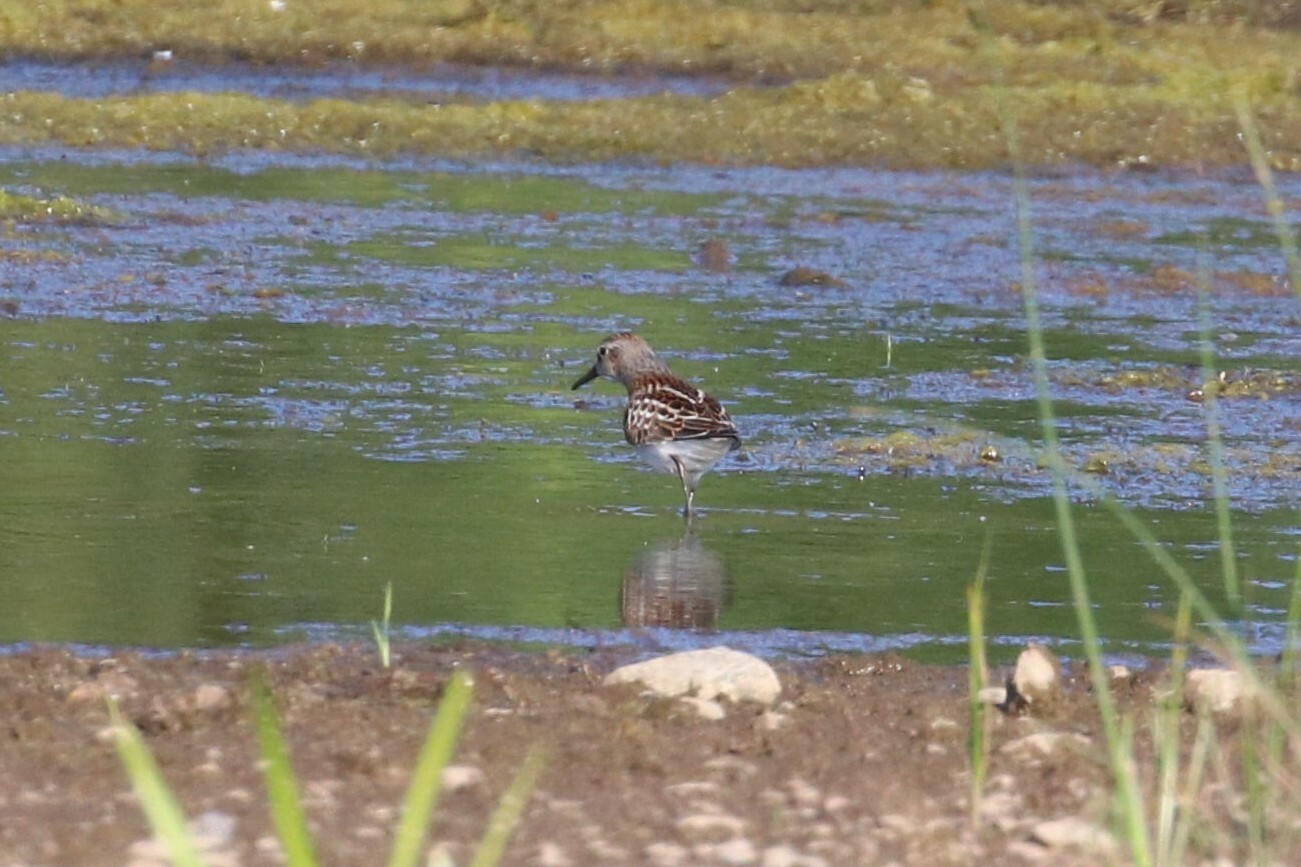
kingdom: Animalia
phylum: Chordata
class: Aves
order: Charadriiformes
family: Scolopacidae
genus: Calidris
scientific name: Calidris minuta
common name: Little stint
